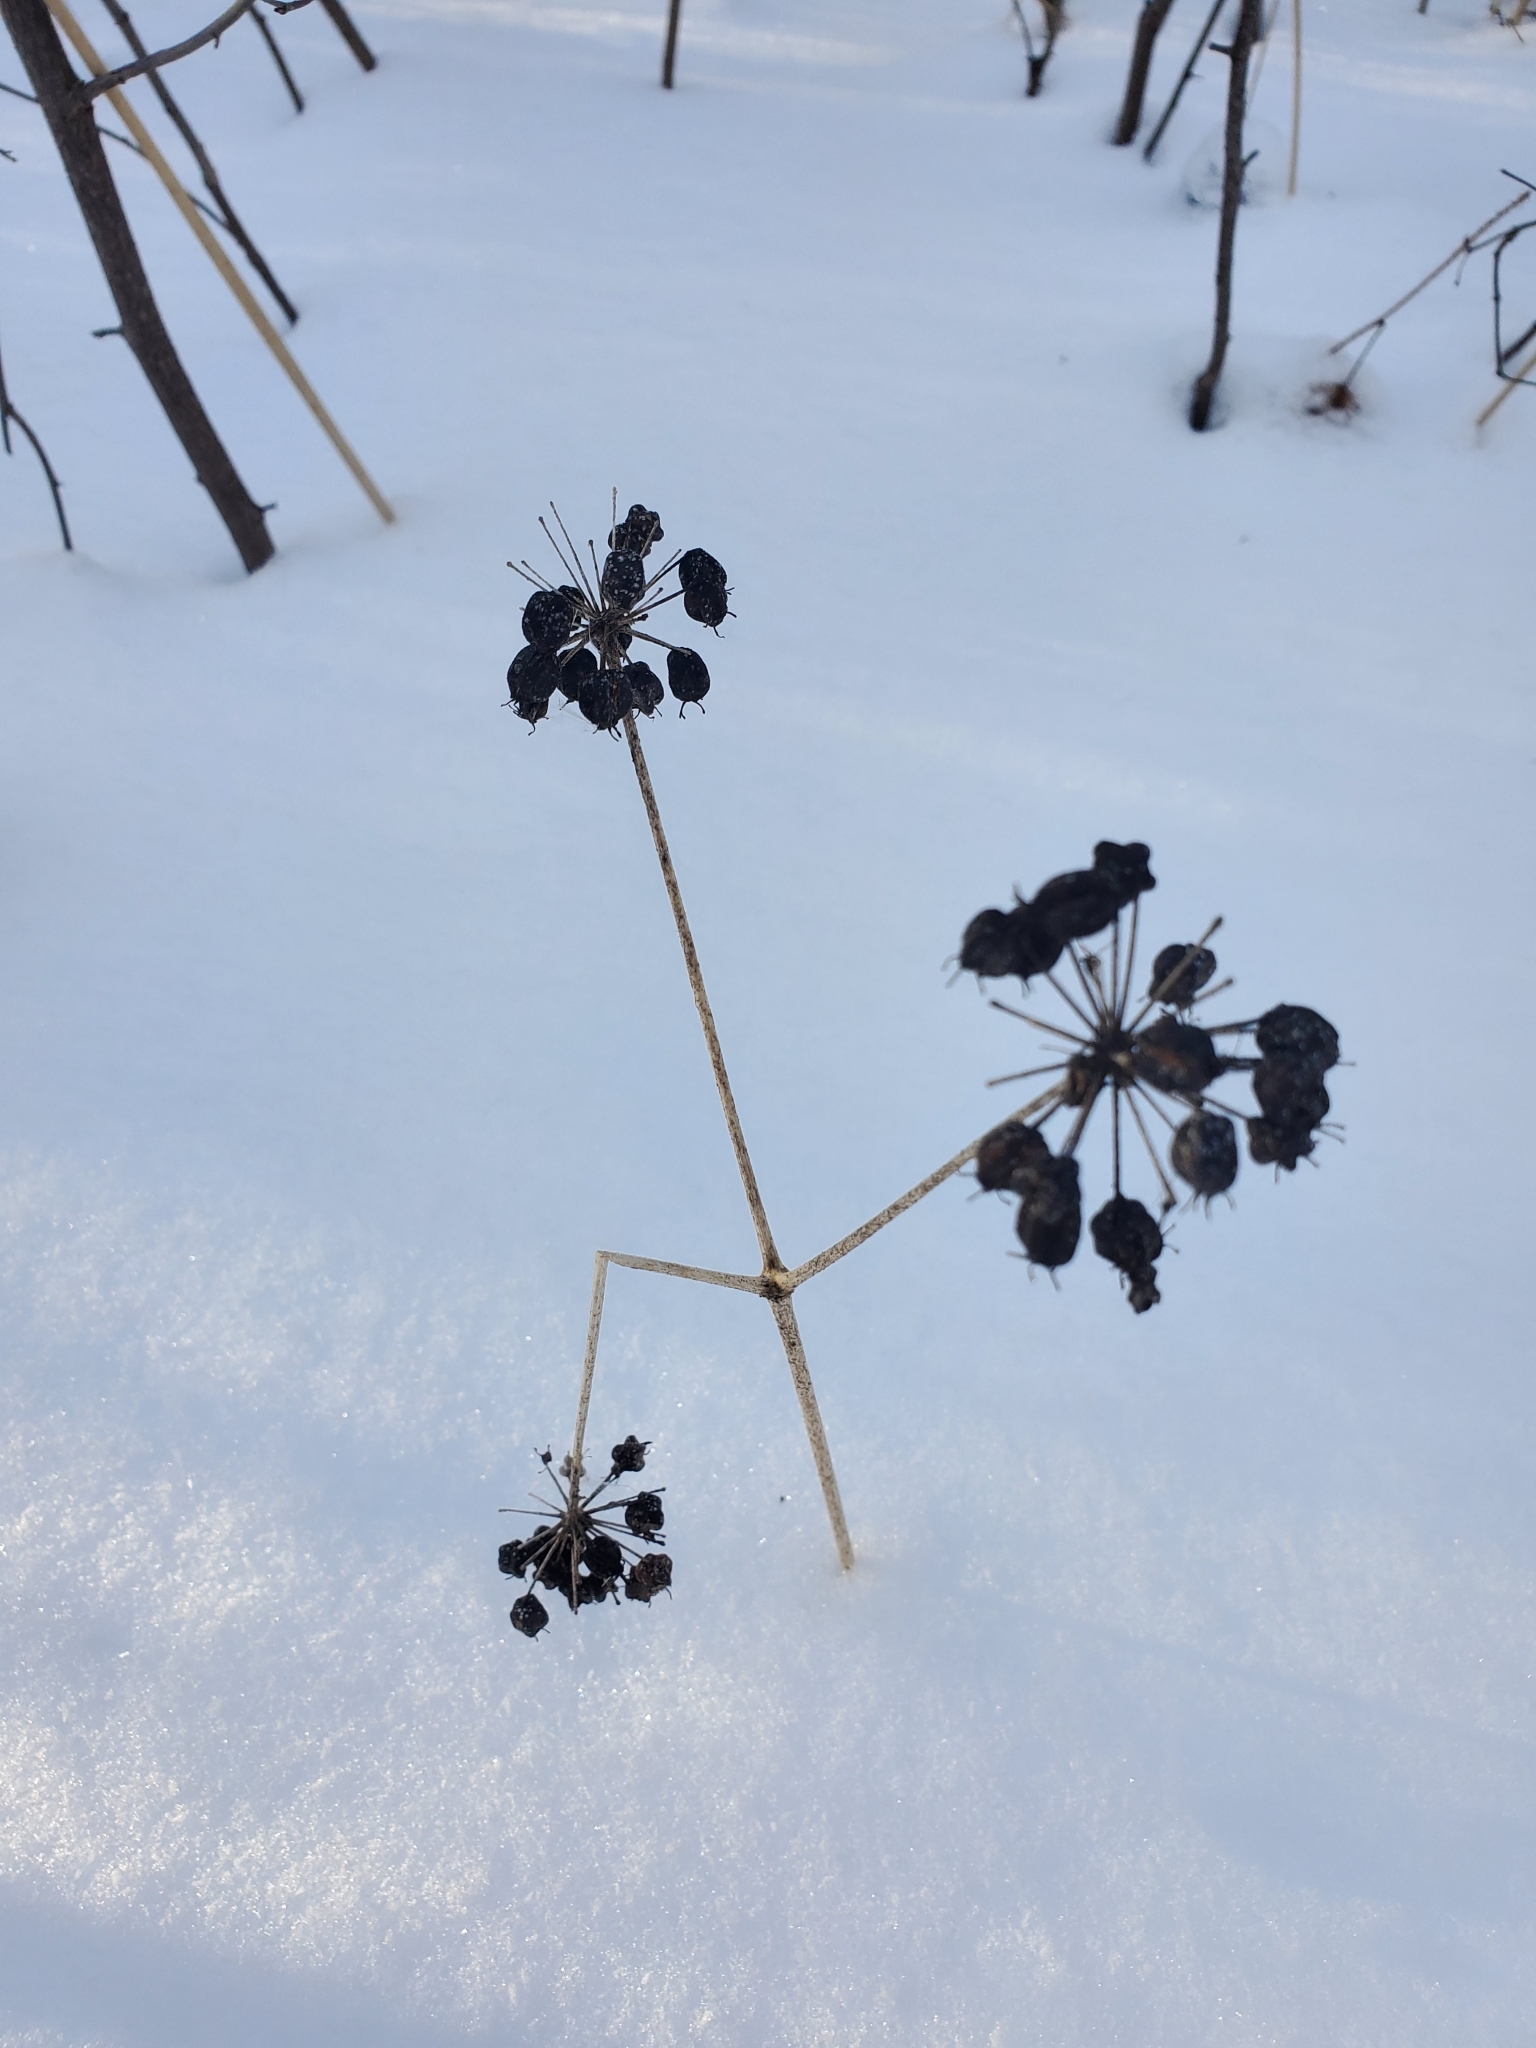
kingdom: Plantae
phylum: Tracheophyta
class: Magnoliopsida
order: Apiales
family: Araliaceae
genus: Aralia
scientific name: Aralia nudicaulis
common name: Wild sarsaparilla
